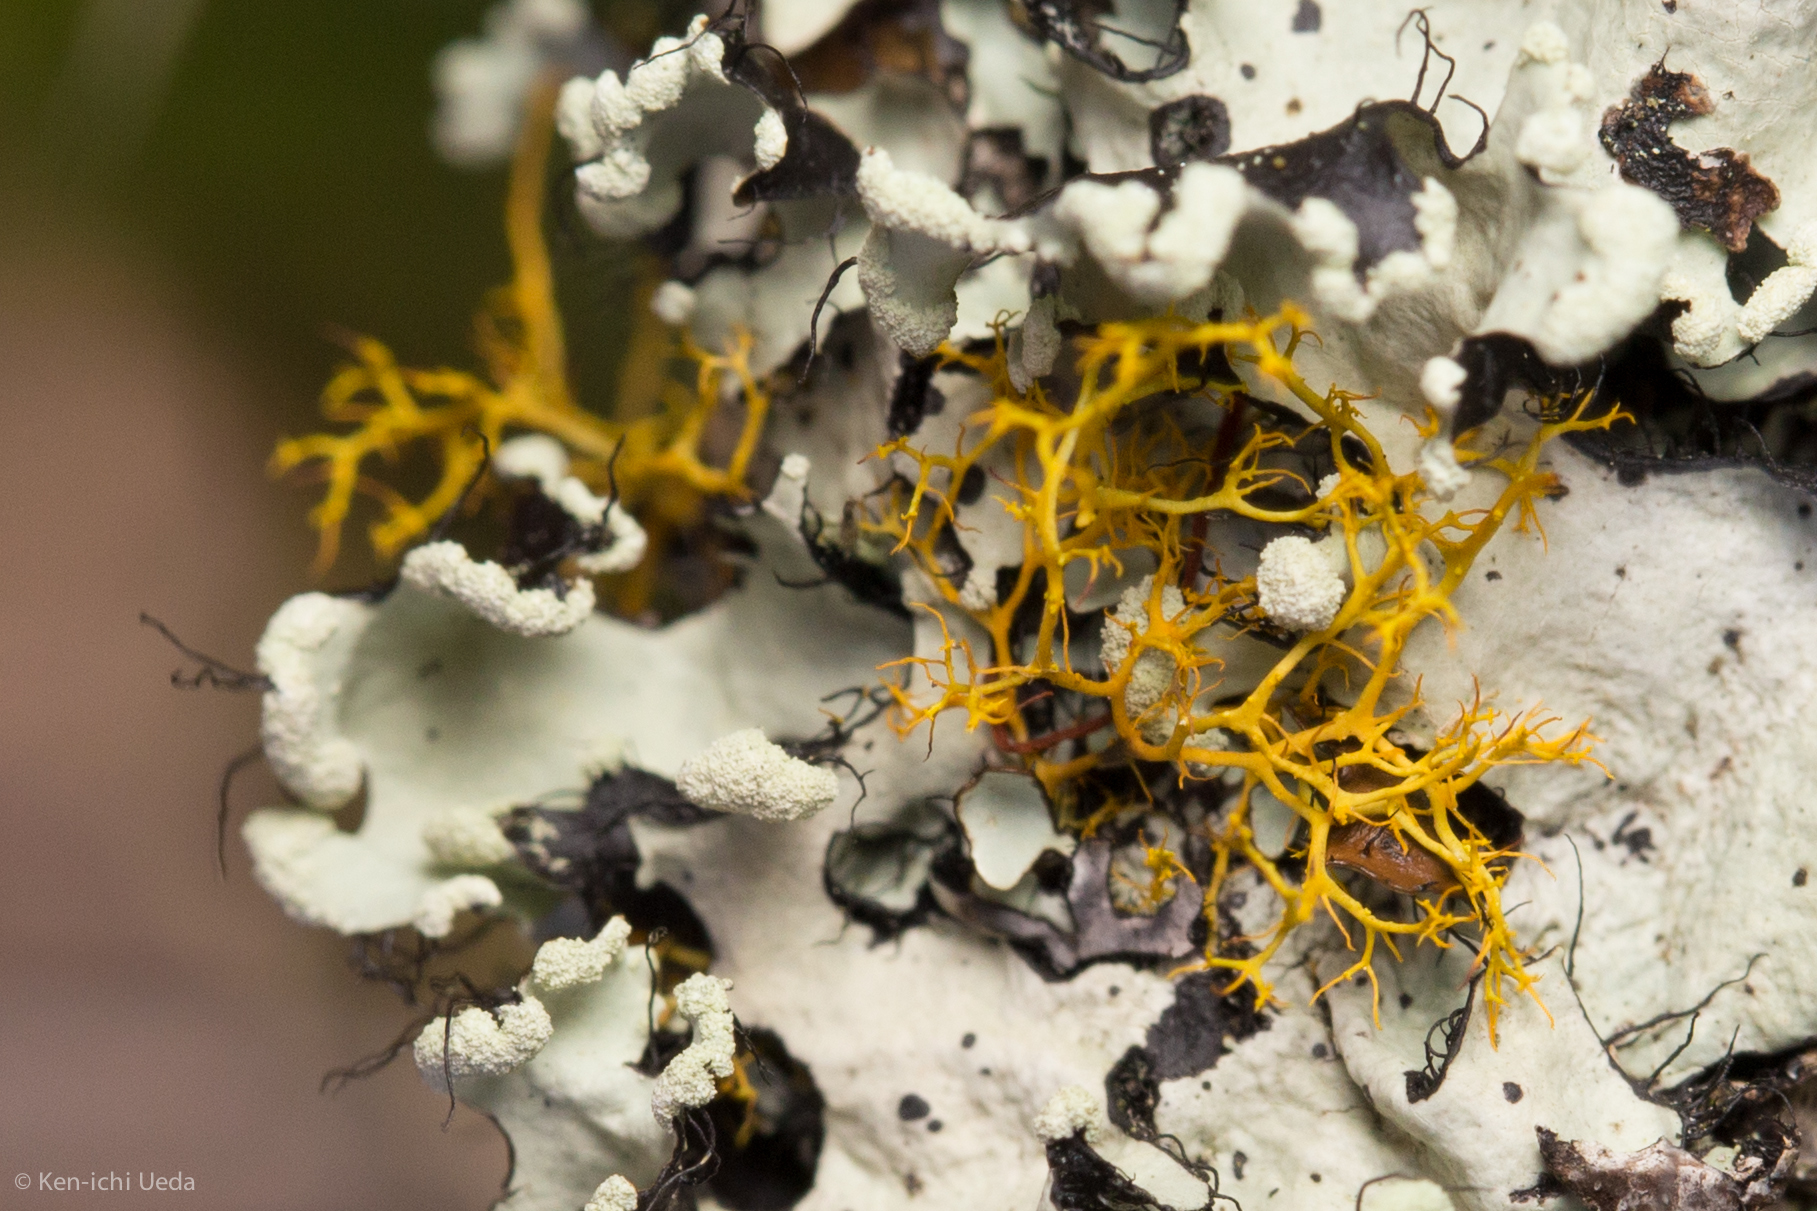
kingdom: Fungi
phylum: Ascomycota
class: Lecanoromycetes
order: Teloschistales
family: Teloschistaceae
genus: Teloschistes
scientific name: Teloschistes flavicans
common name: Golden hair-lichen
